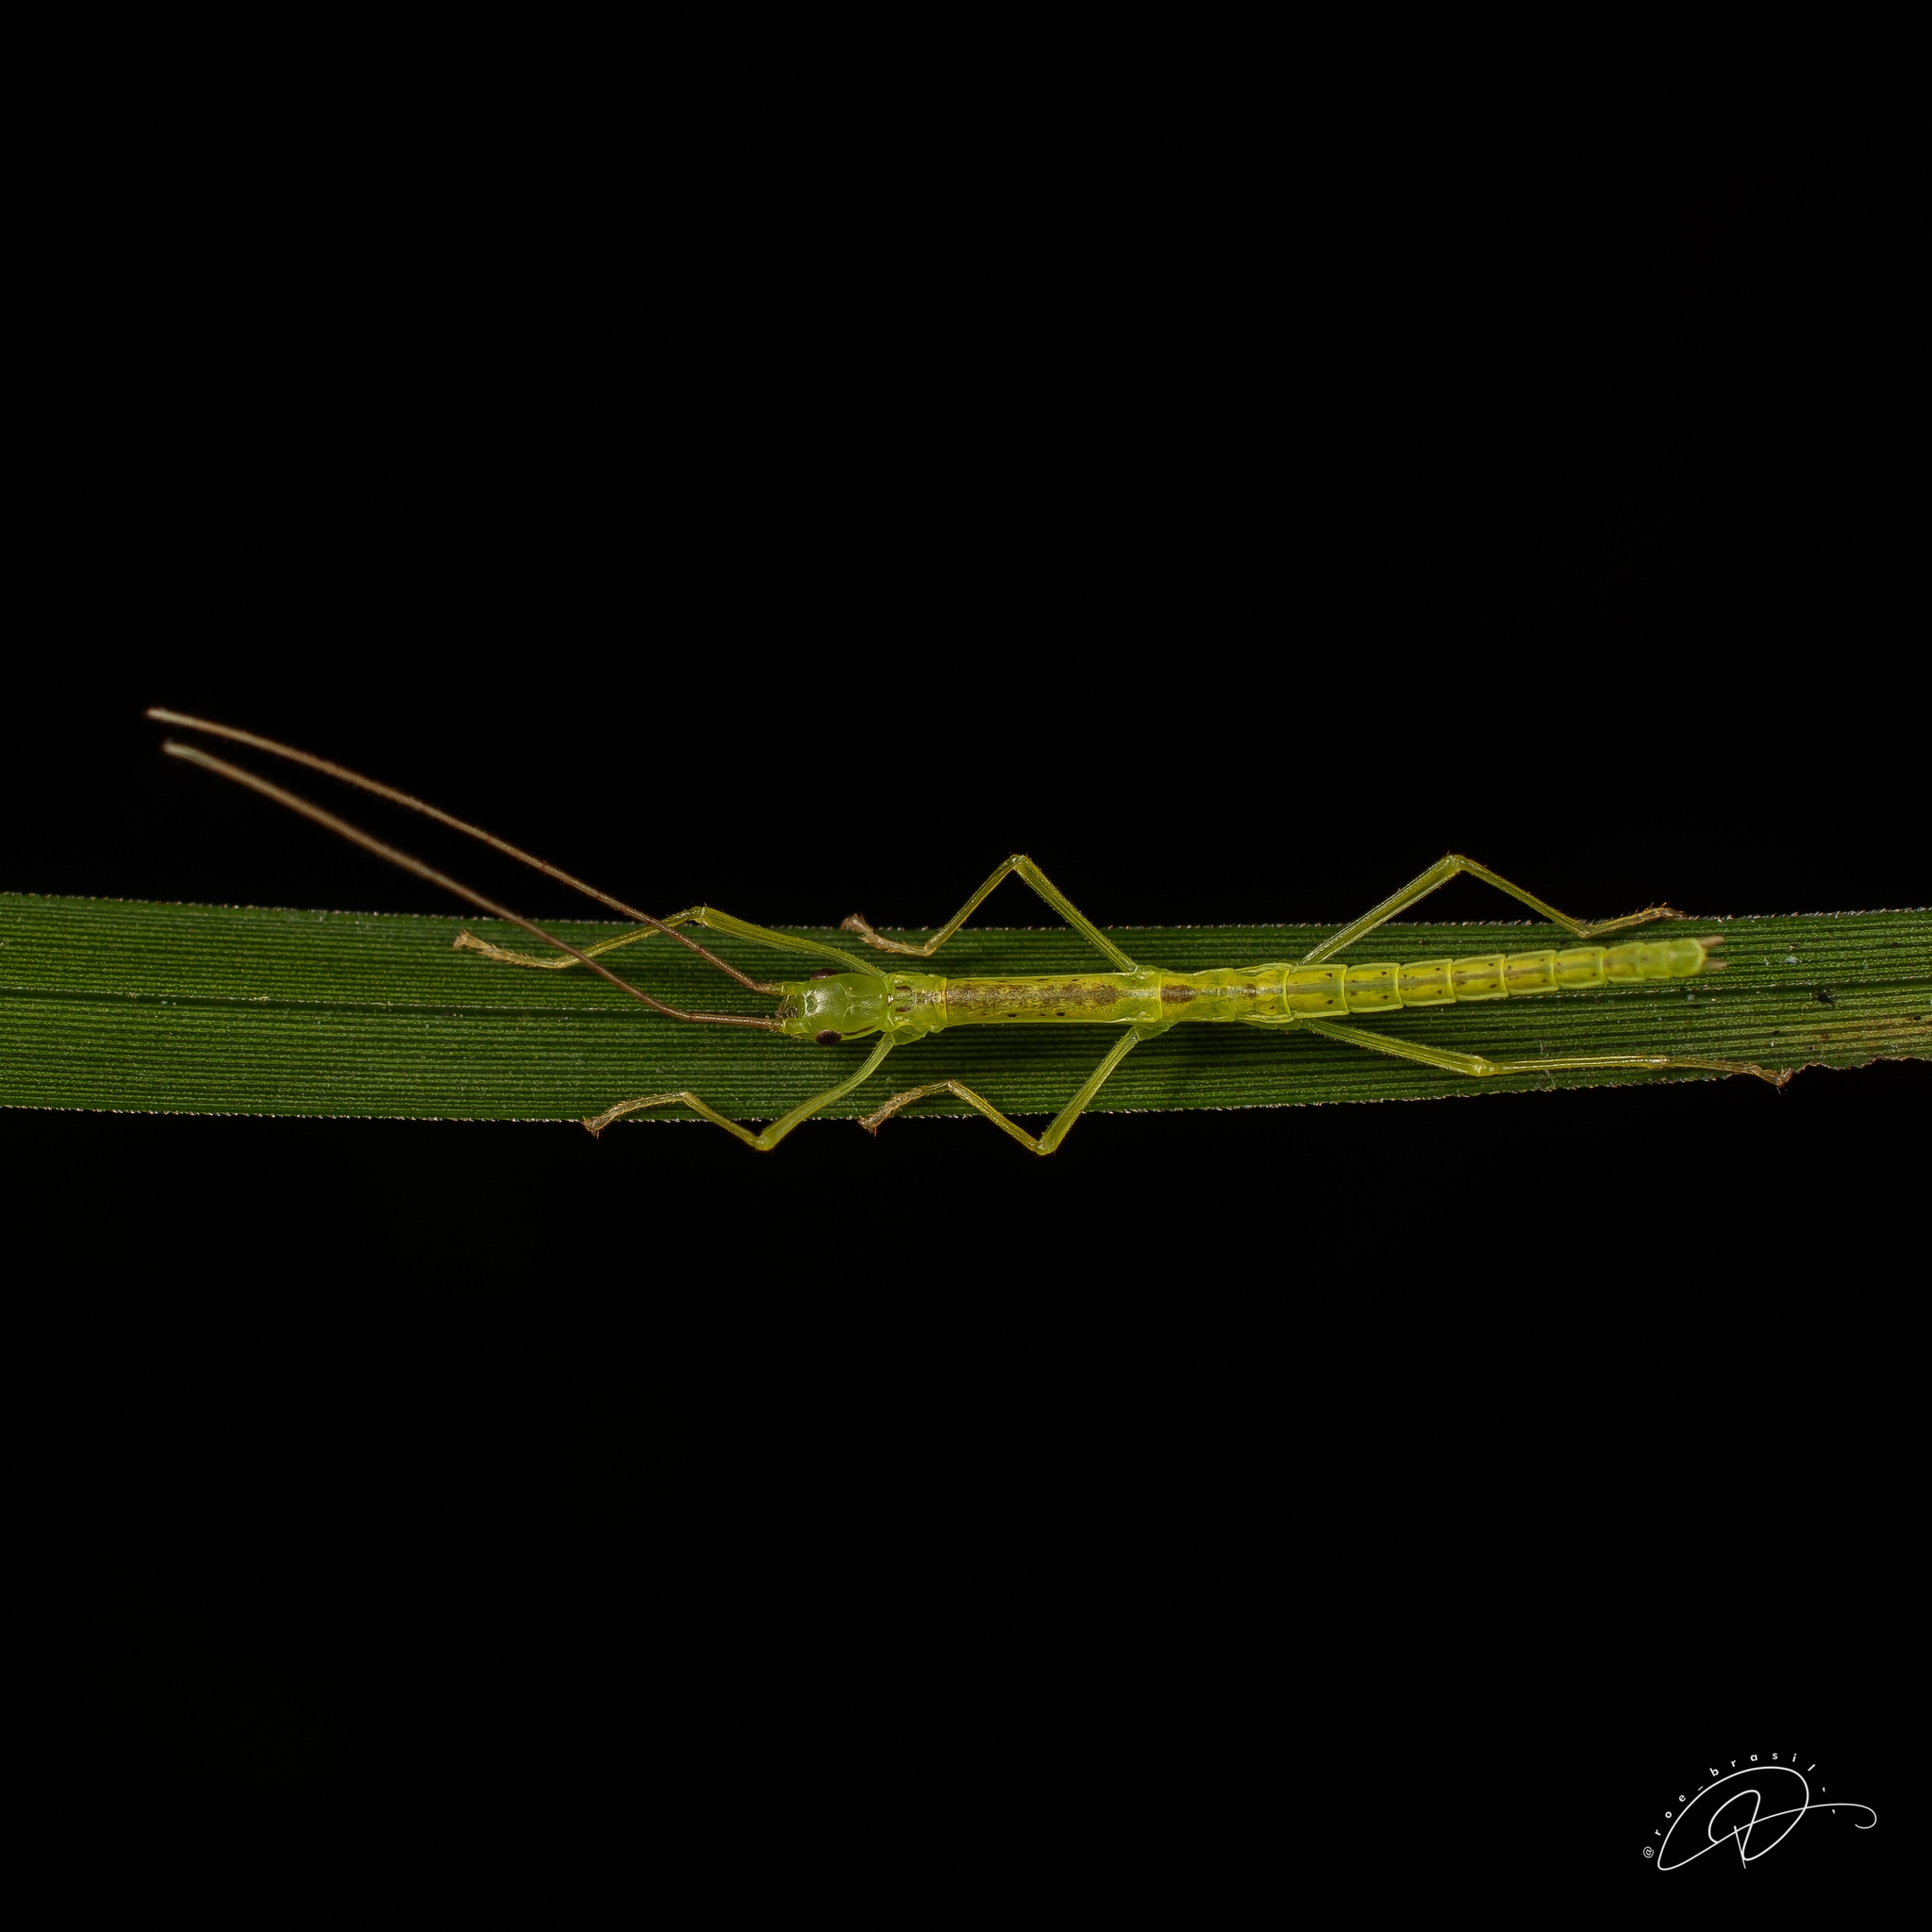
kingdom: Animalia
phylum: Arthropoda
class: Insecta
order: Phasmida
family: Pseudophasmatidae
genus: Isagoras
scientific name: Isagoras melzeri
